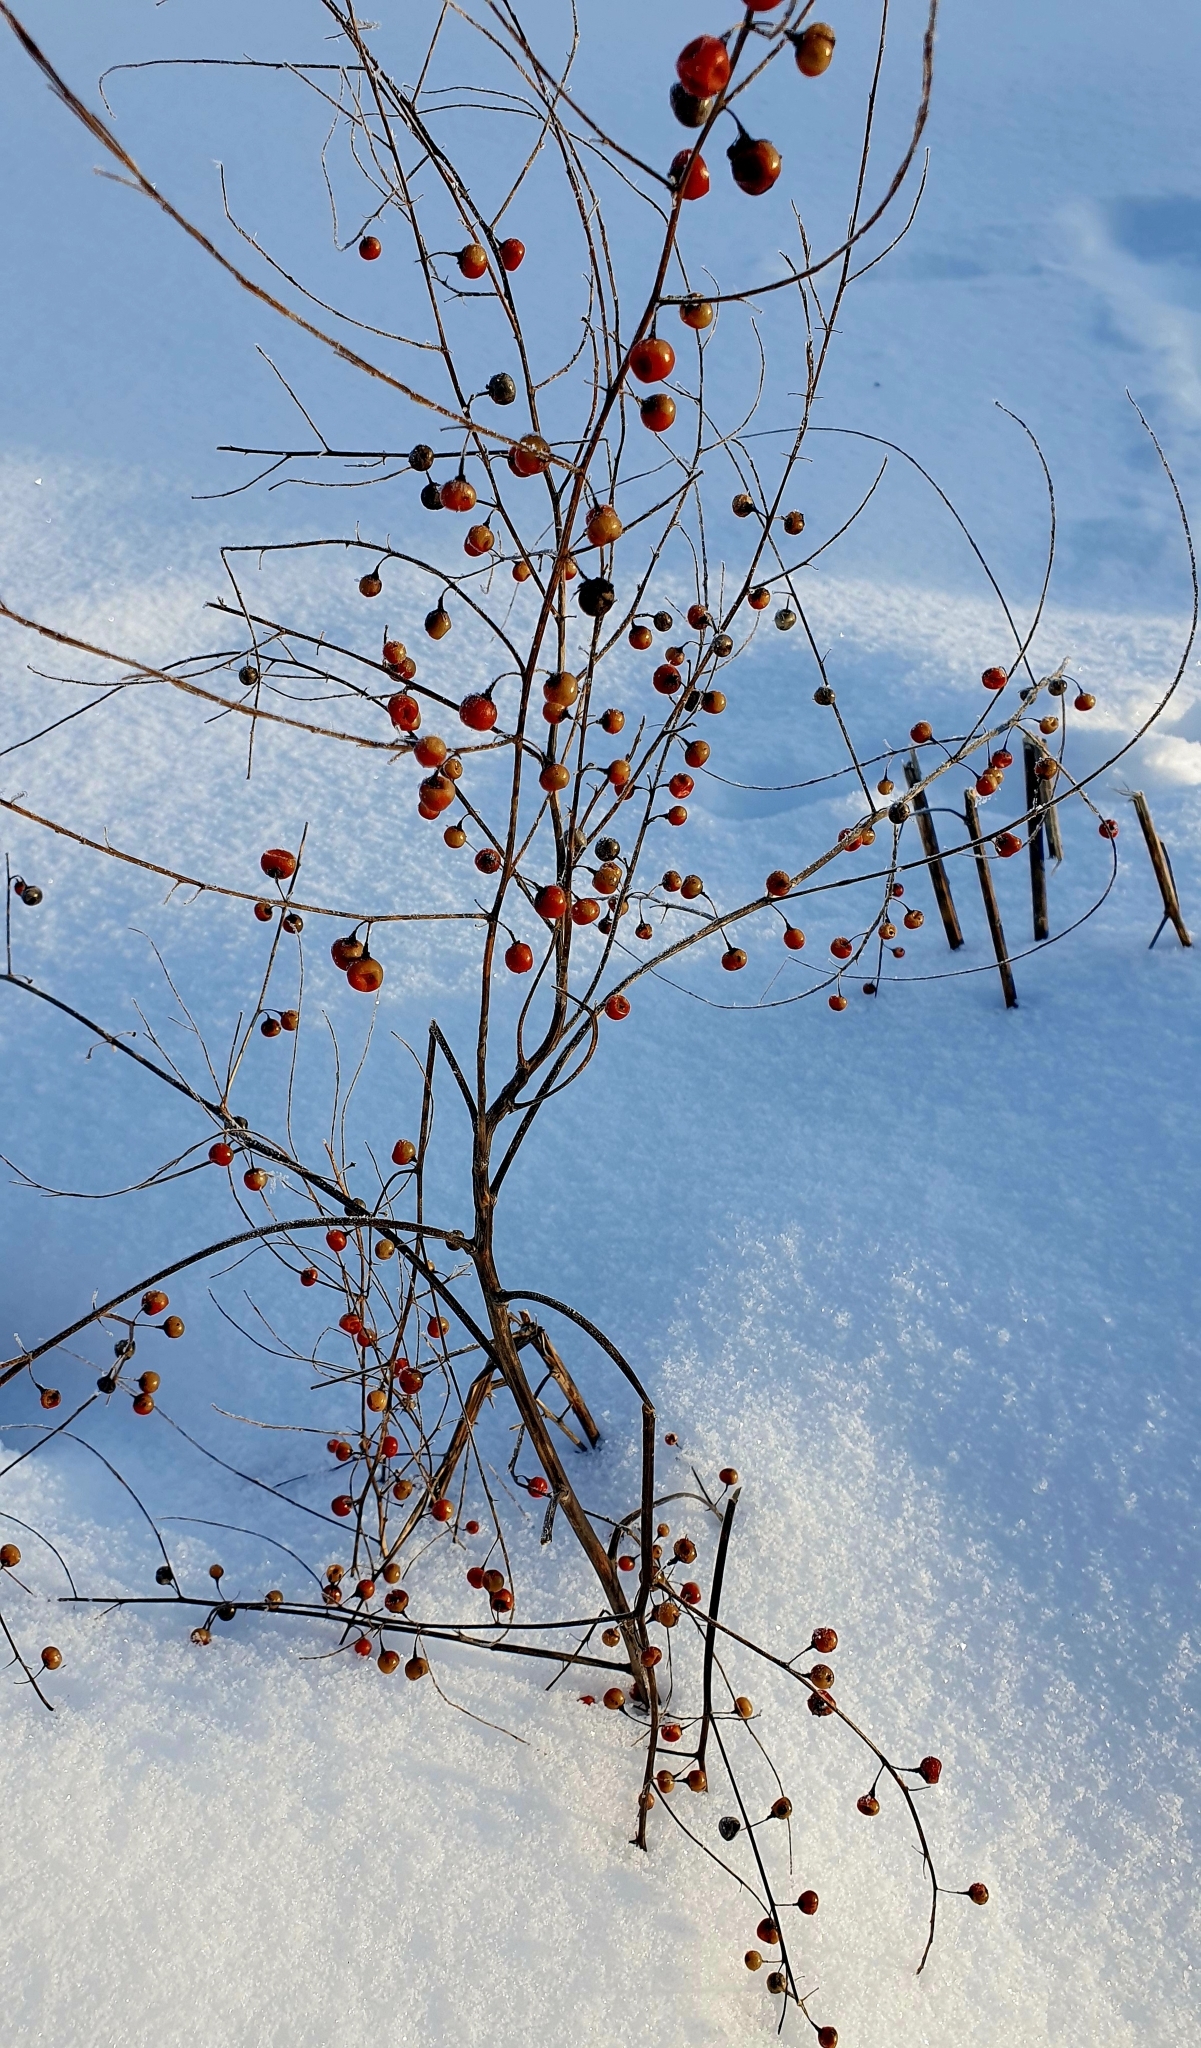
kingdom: Plantae
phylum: Tracheophyta
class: Liliopsida
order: Asparagales
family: Asparagaceae
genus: Asparagus
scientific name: Asparagus officinalis
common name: Garden asparagus
